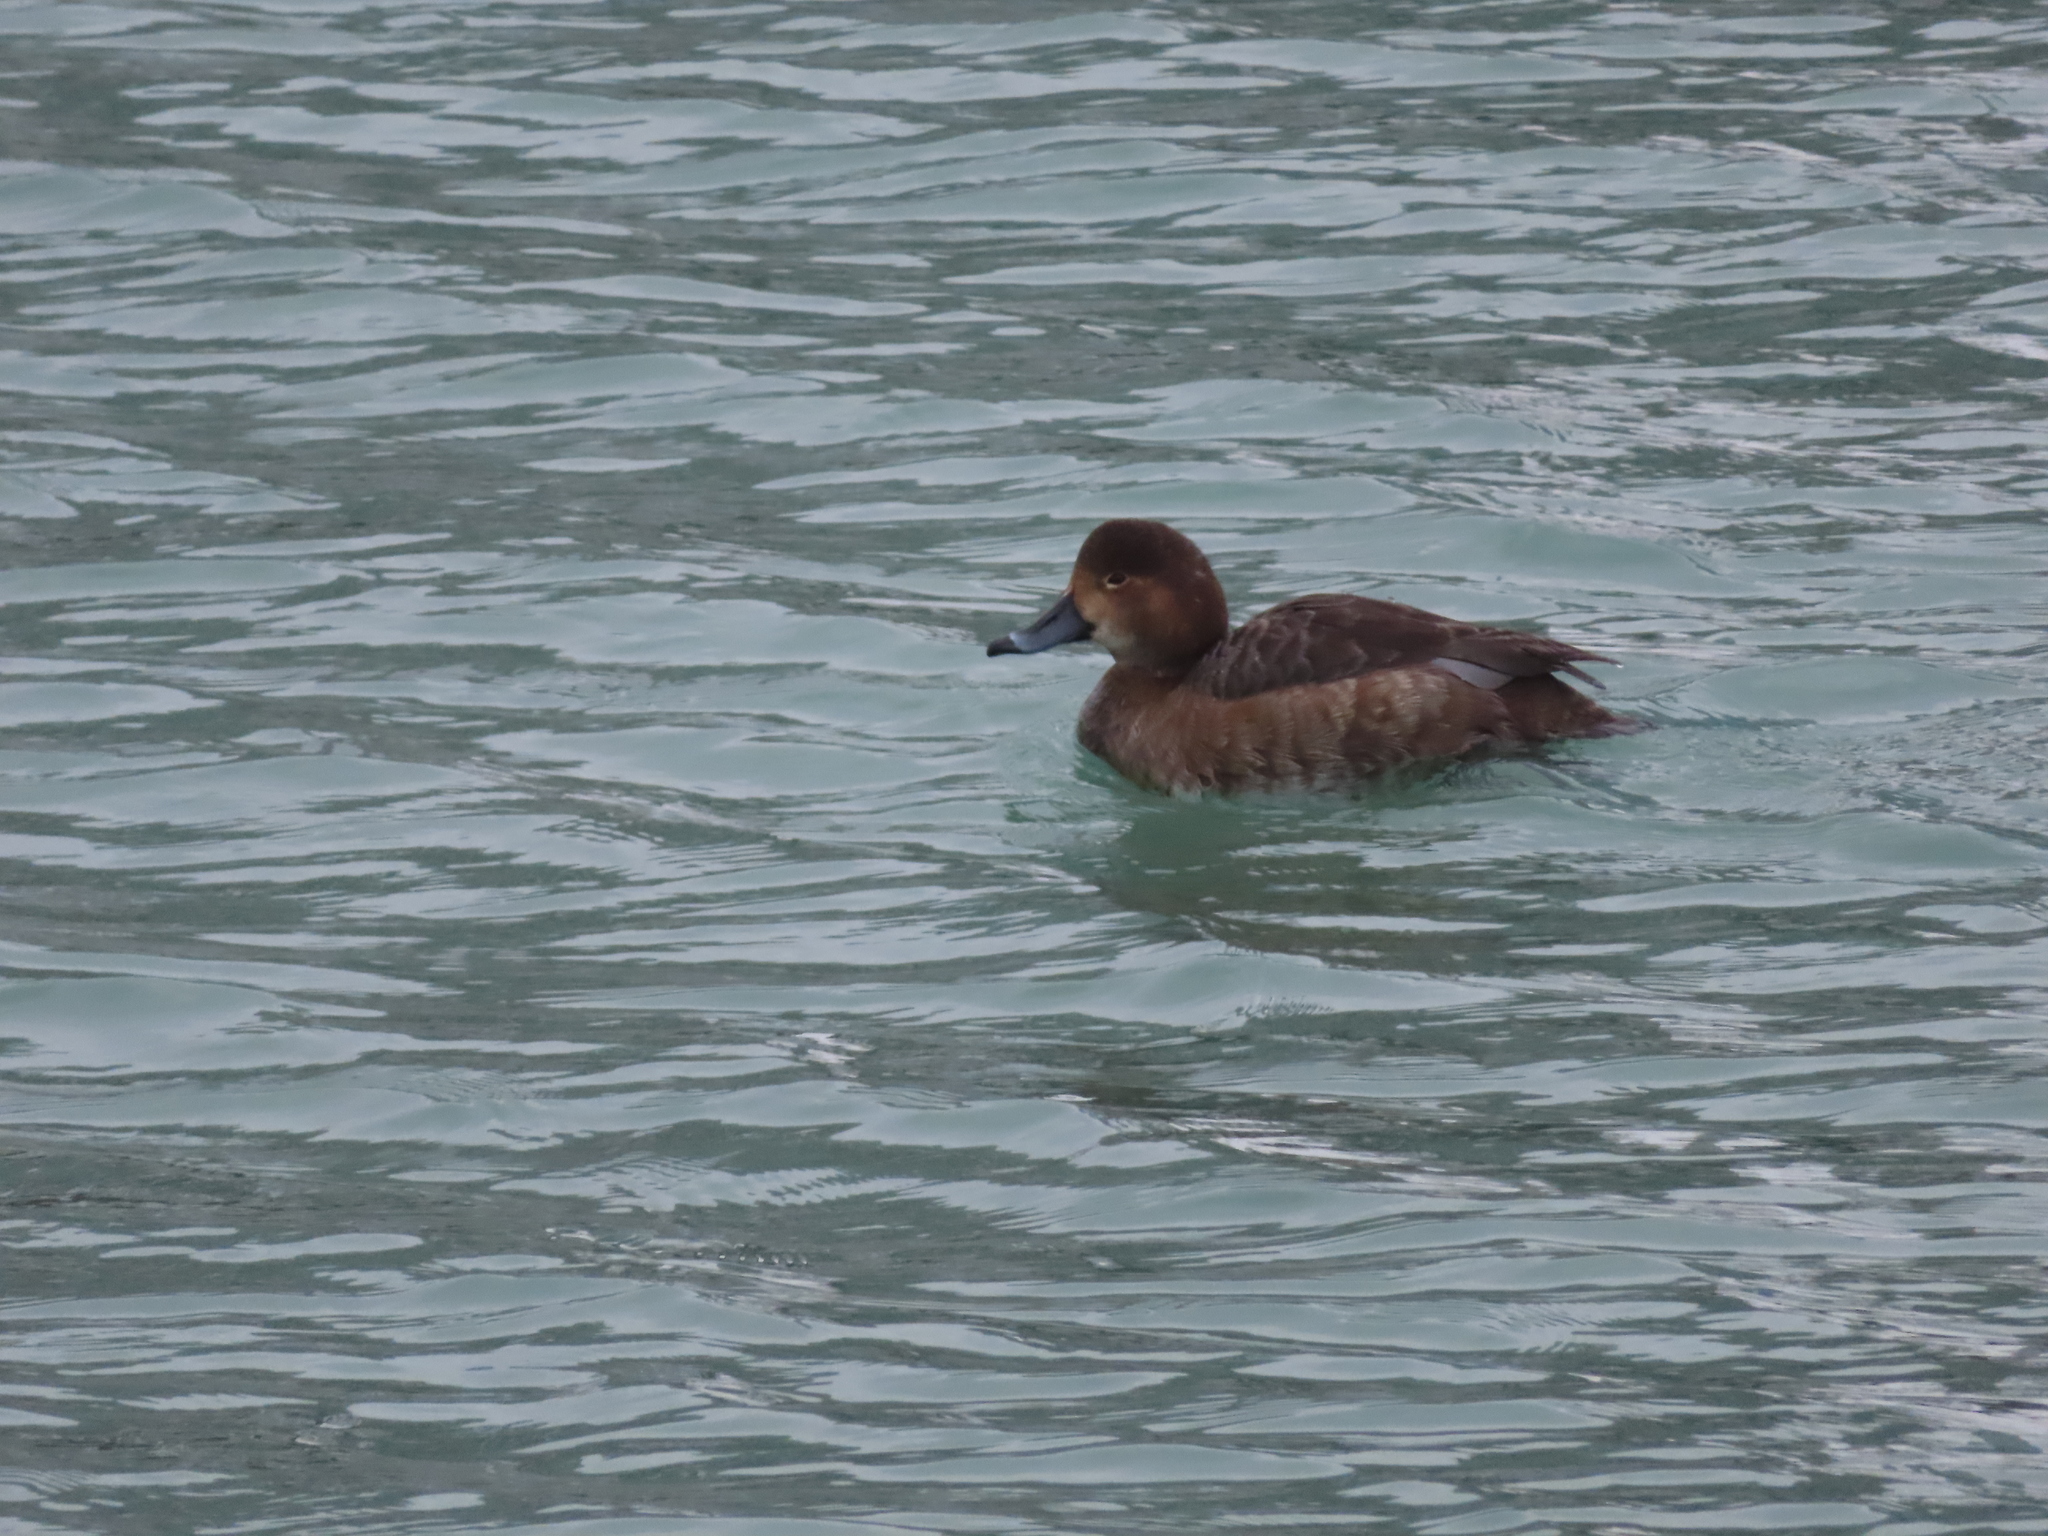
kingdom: Animalia
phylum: Chordata
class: Aves
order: Anseriformes
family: Anatidae
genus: Aythya
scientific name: Aythya americana
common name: Redhead
